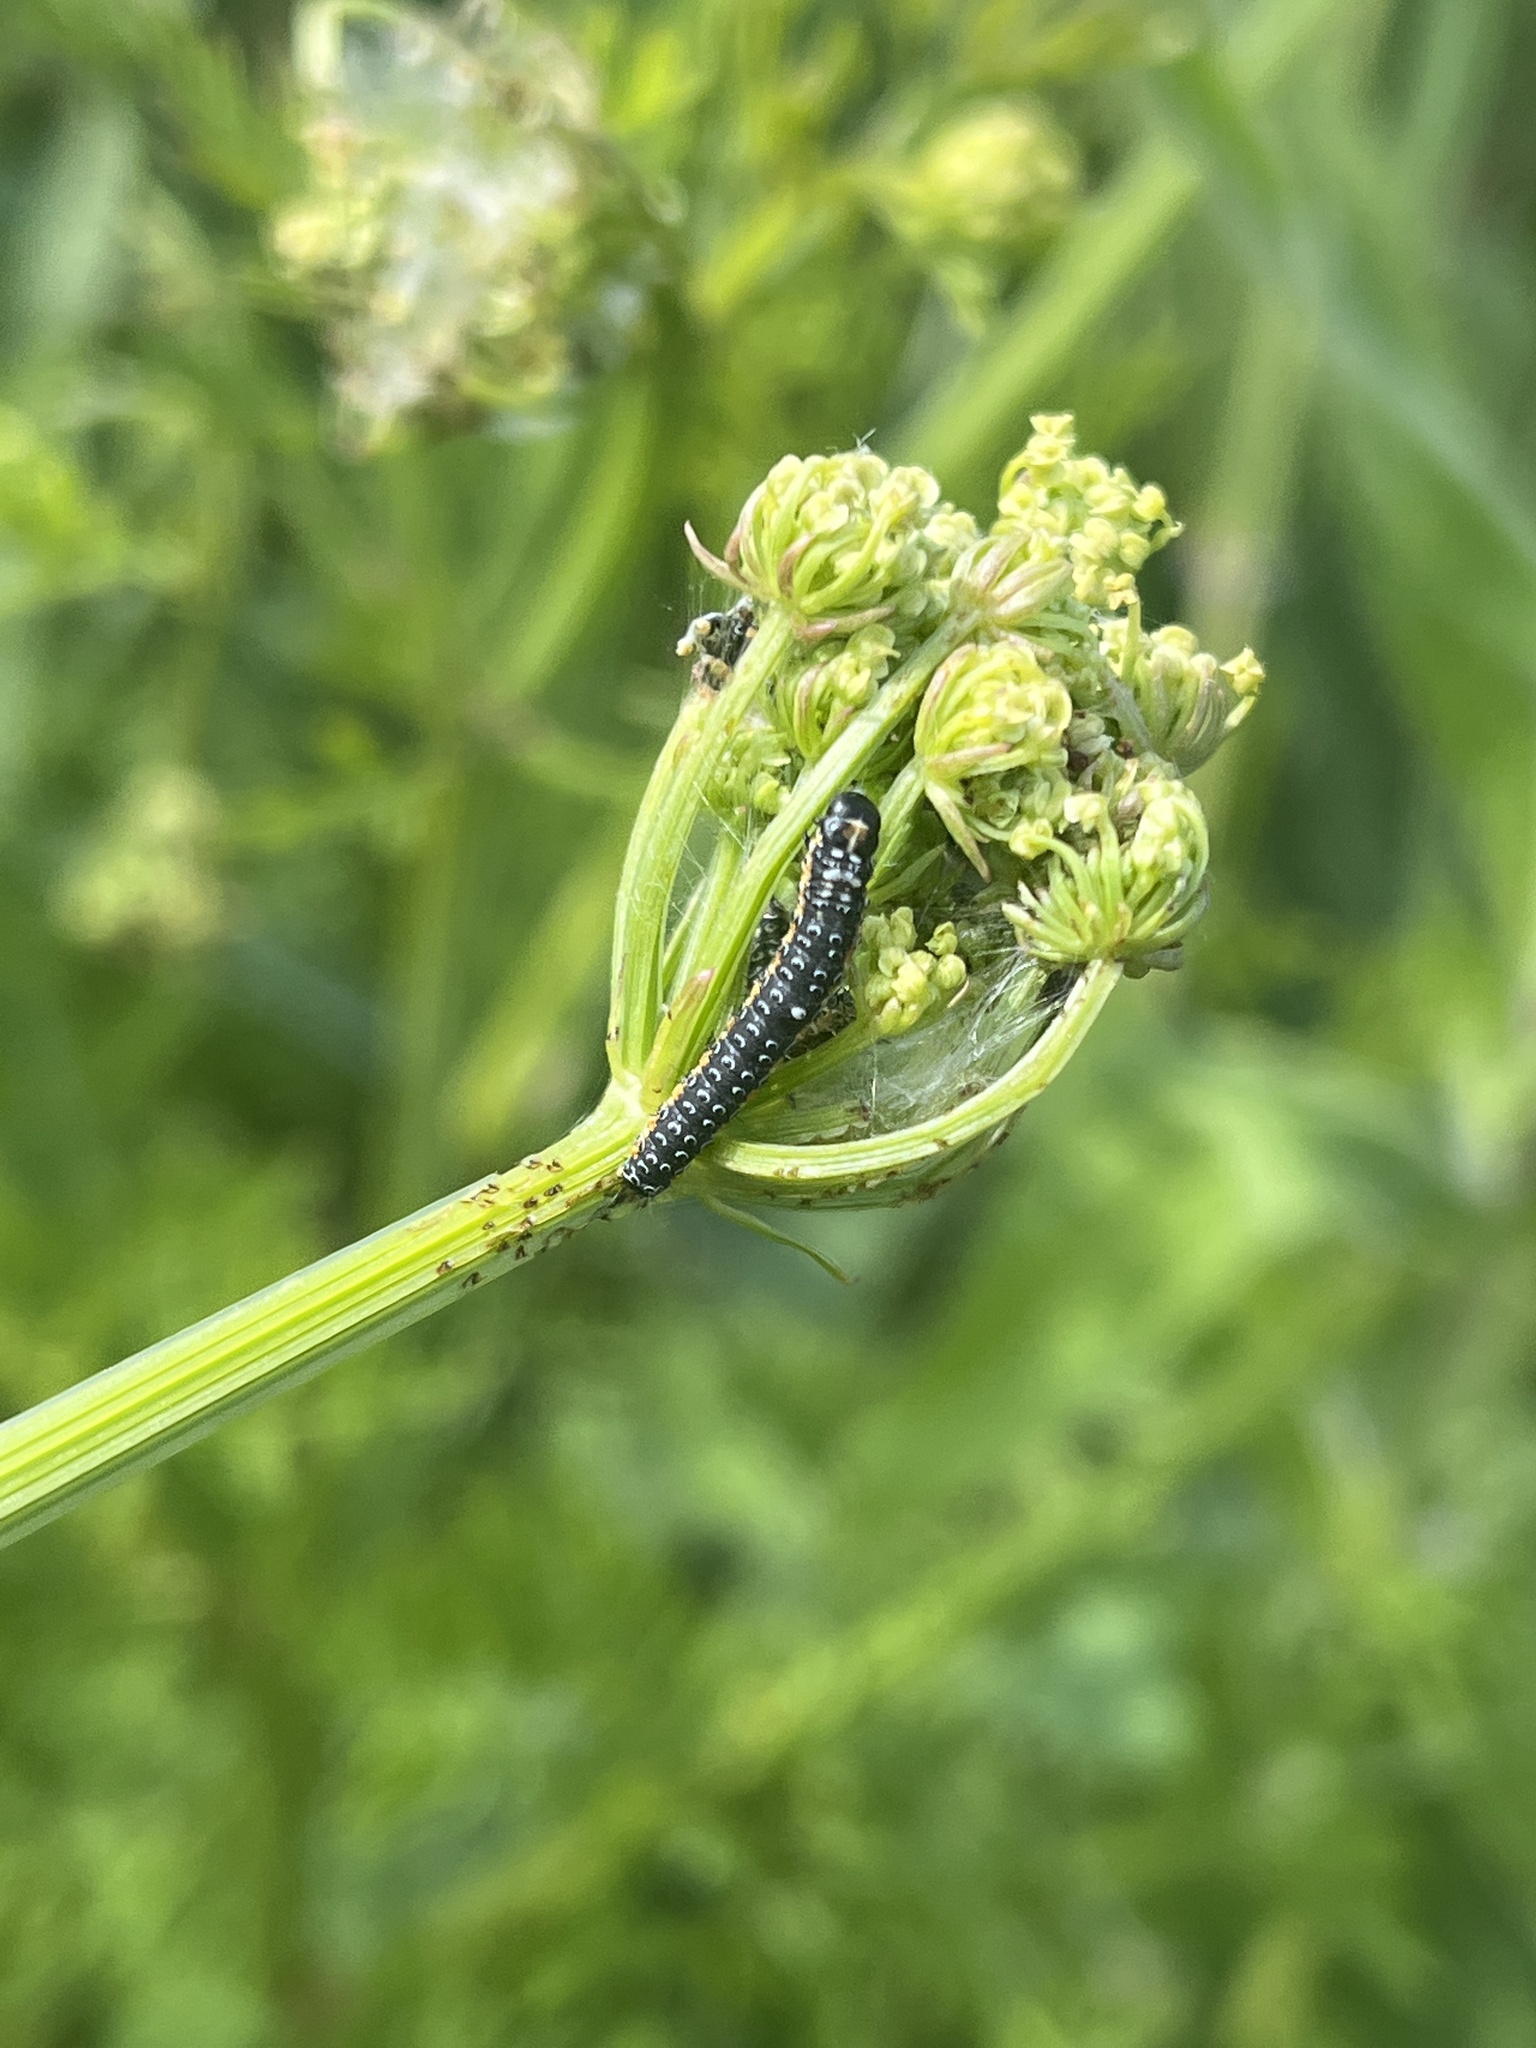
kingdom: Animalia
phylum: Arthropoda
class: Insecta
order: Lepidoptera
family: Depressariidae
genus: Depressaria
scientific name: Depressaria apiella
